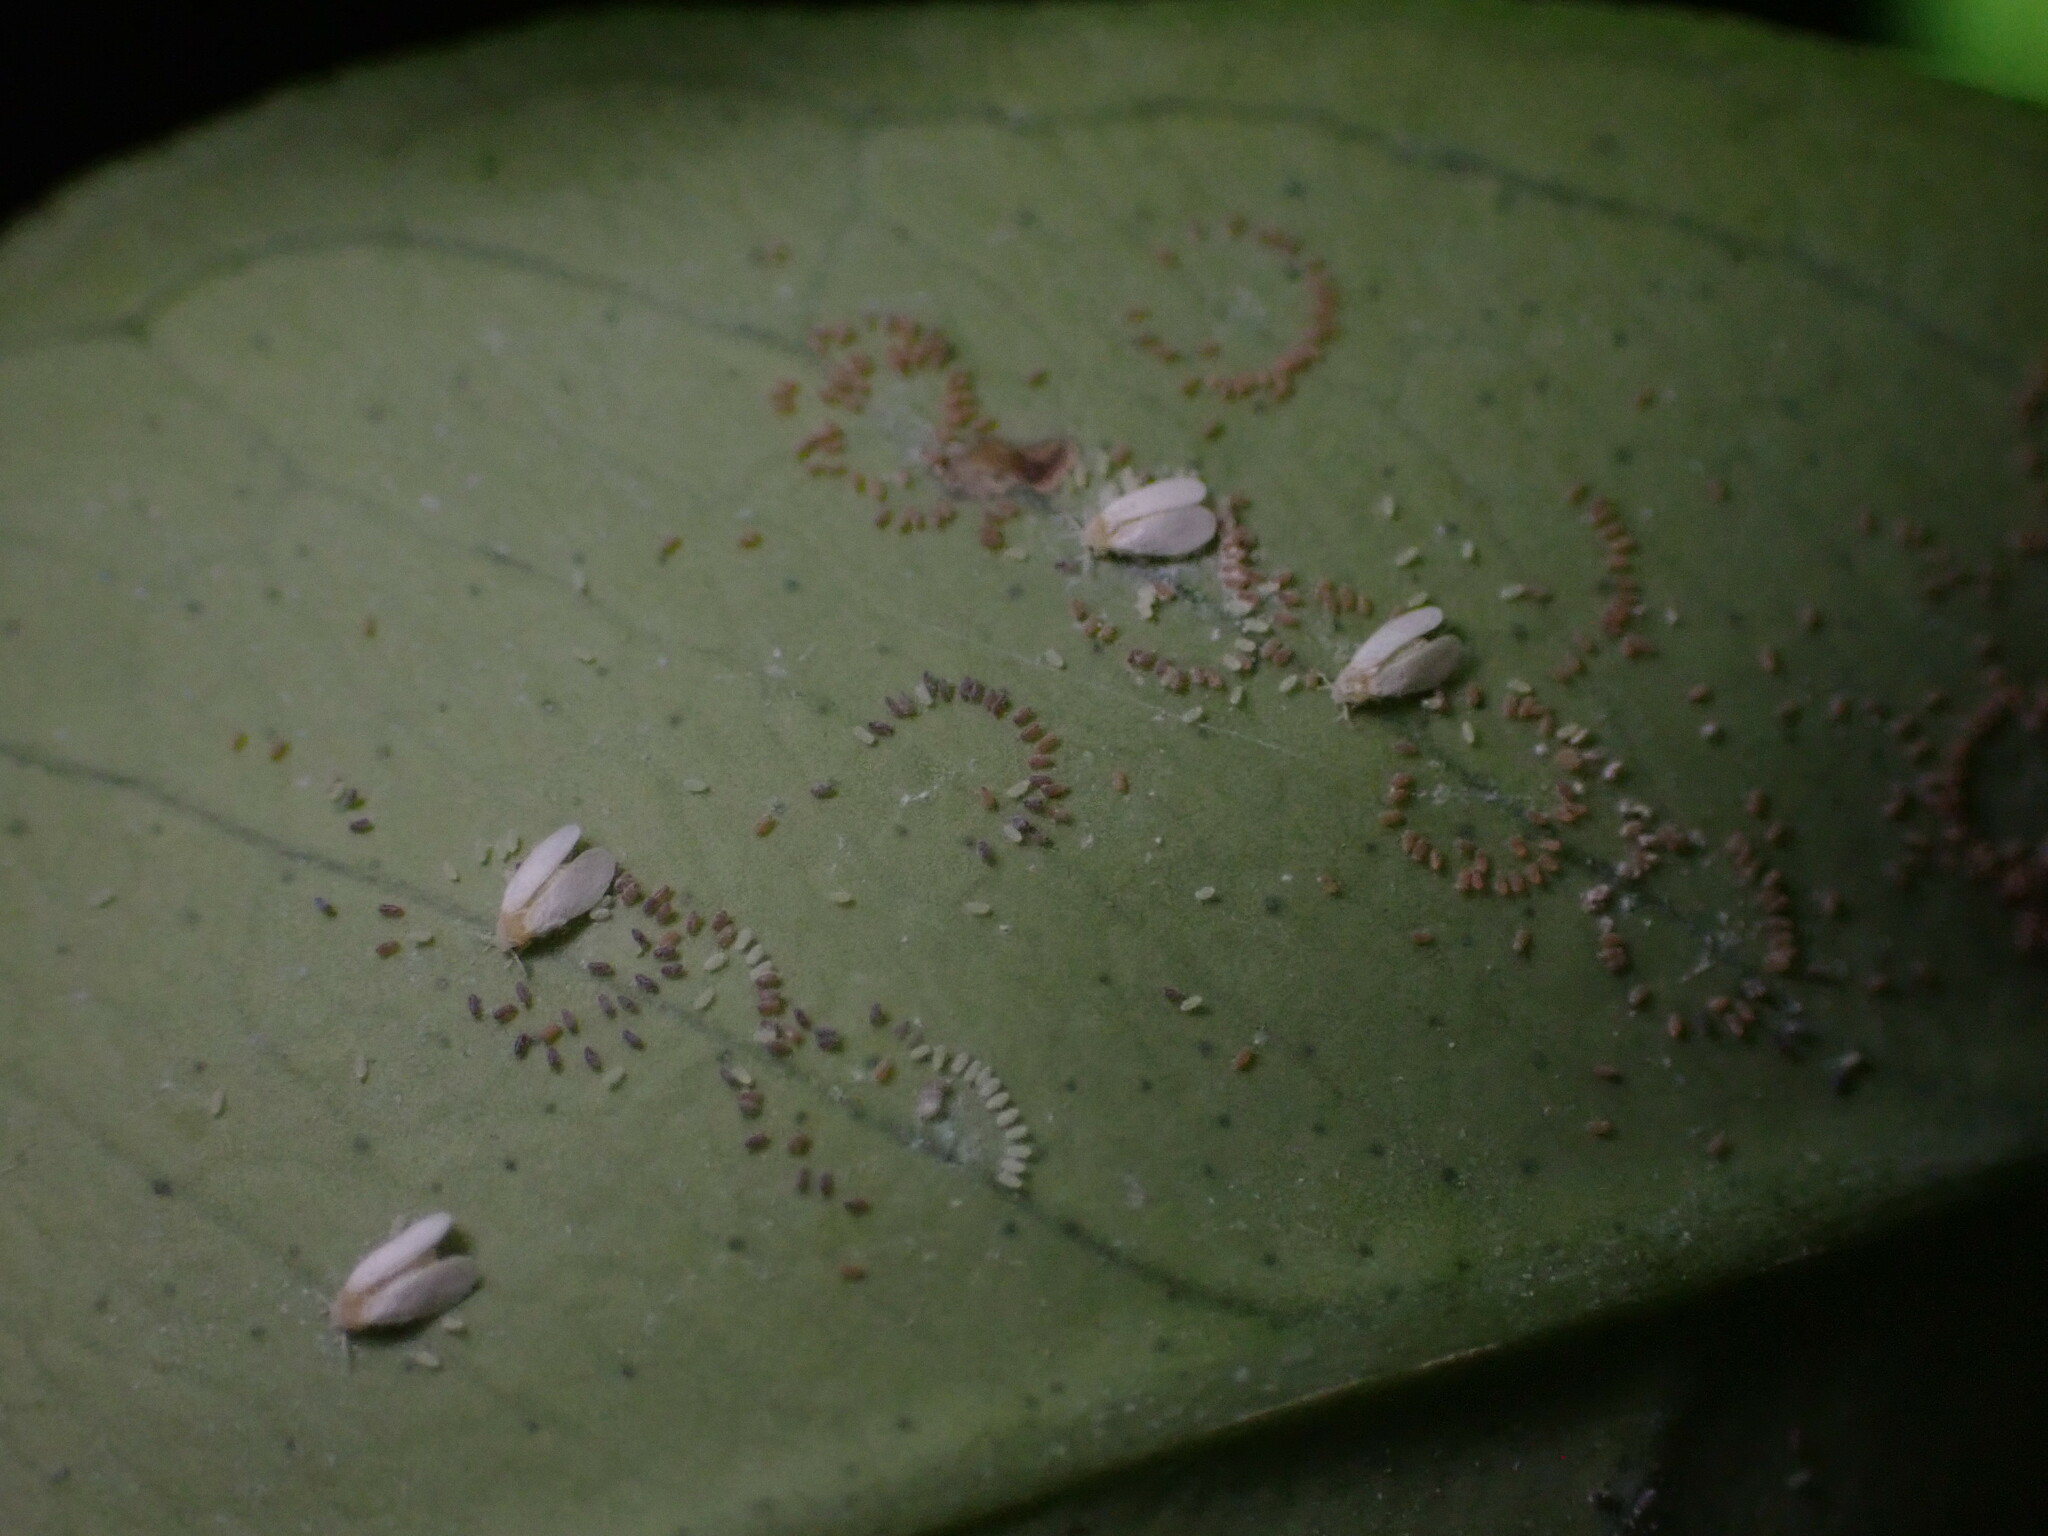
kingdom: Animalia
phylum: Arthropoda
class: Insecta
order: Hemiptera
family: Aleyrodidae
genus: Dialeurodes
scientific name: Dialeurodes citri
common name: Whitefly
